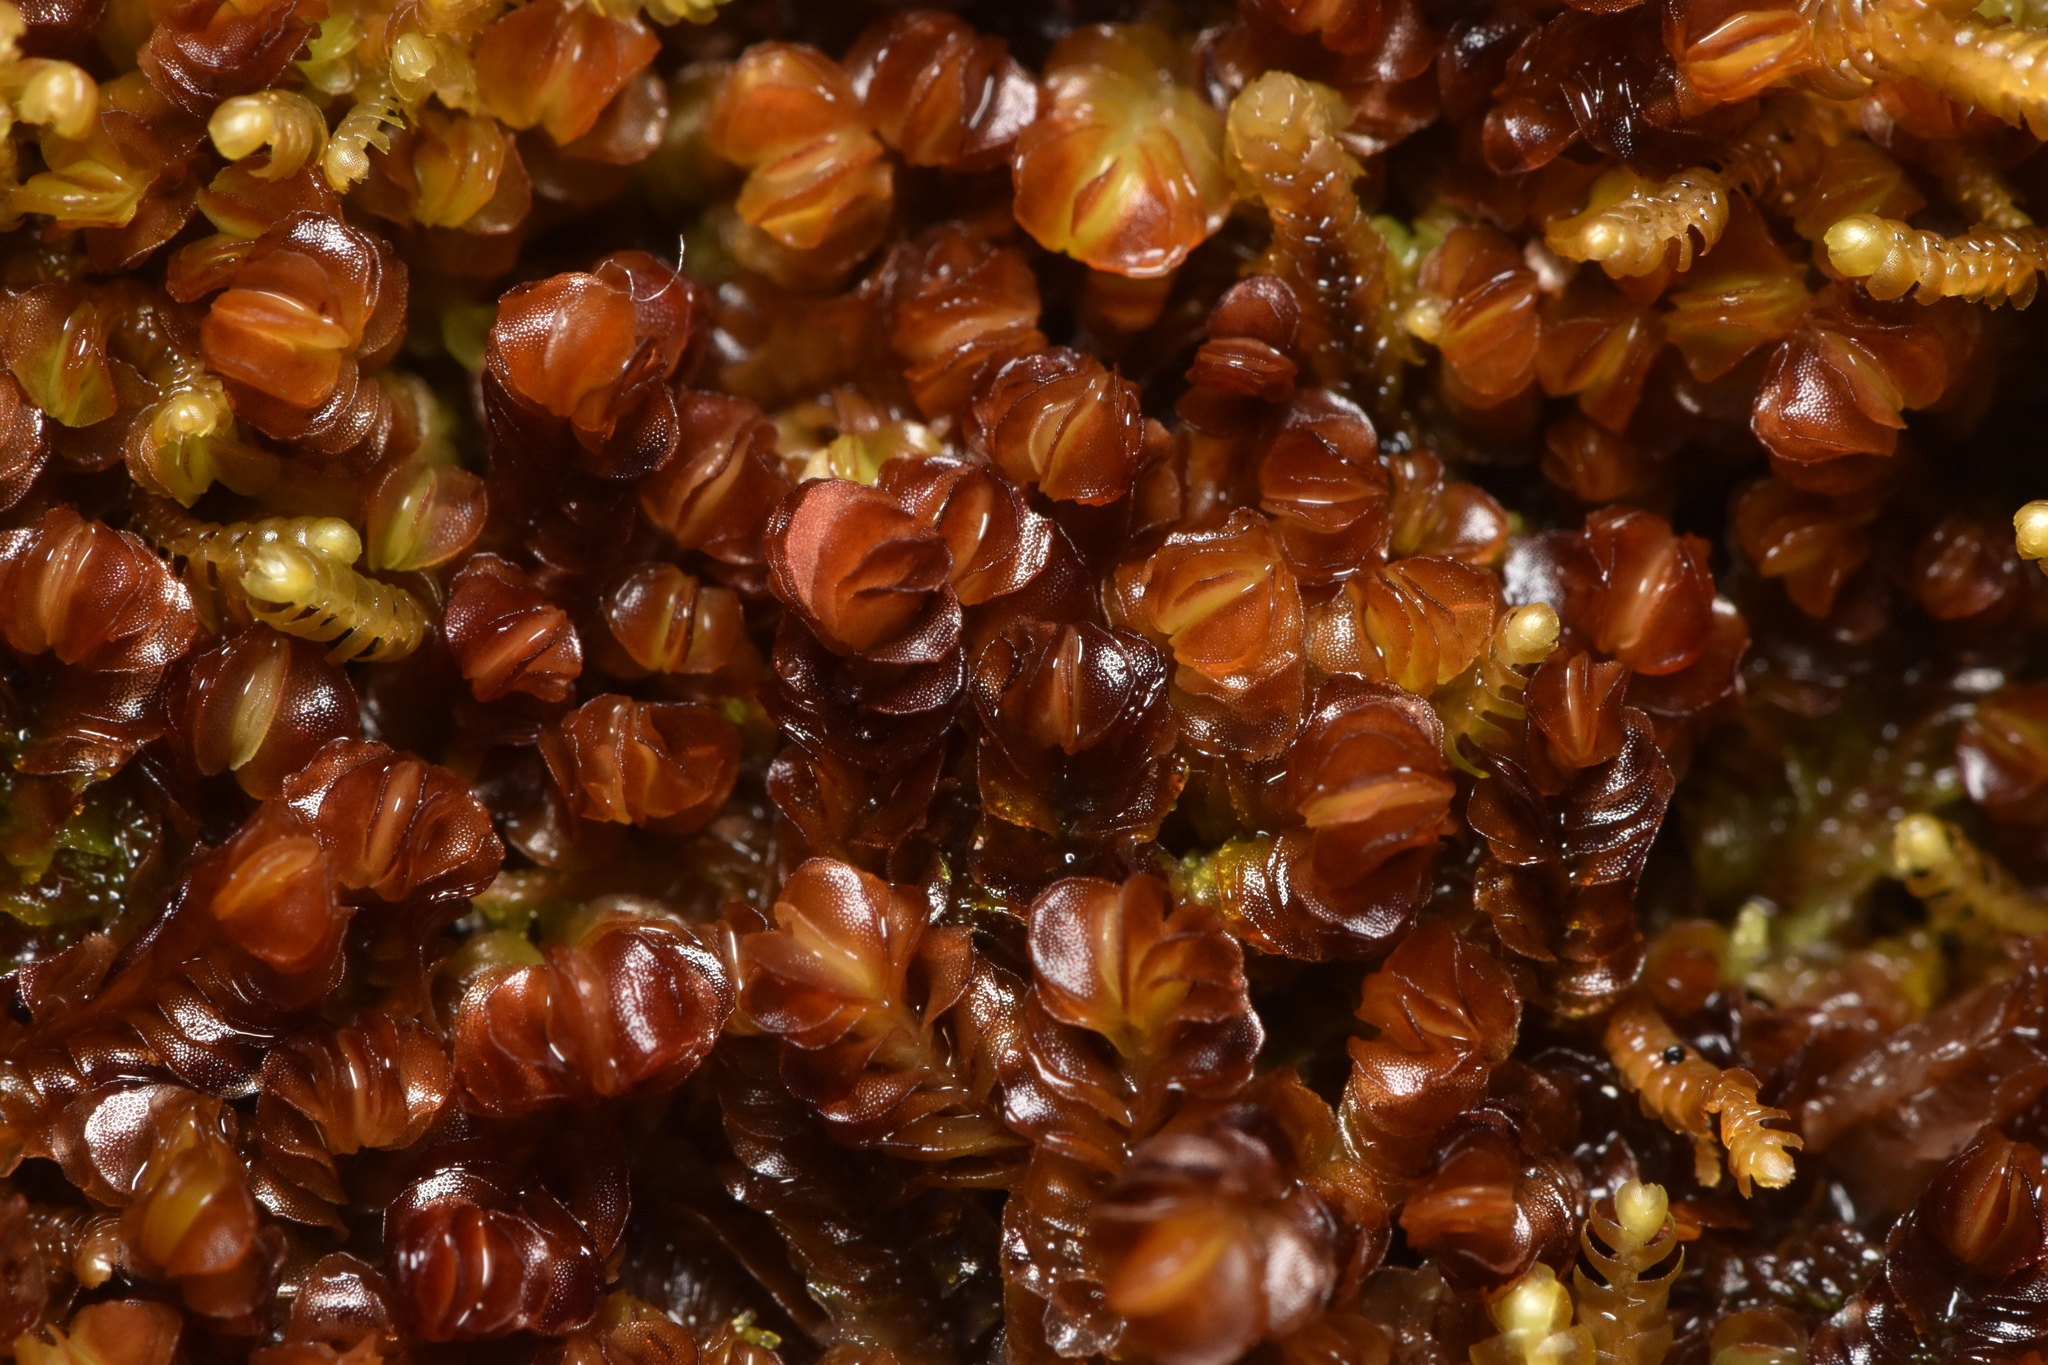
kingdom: Plantae
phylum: Marchantiophyta
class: Jungermanniopsida
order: Jungermanniales
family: Myliaceae
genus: Mylia
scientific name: Mylia taylorii
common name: Taylor s flapwort
